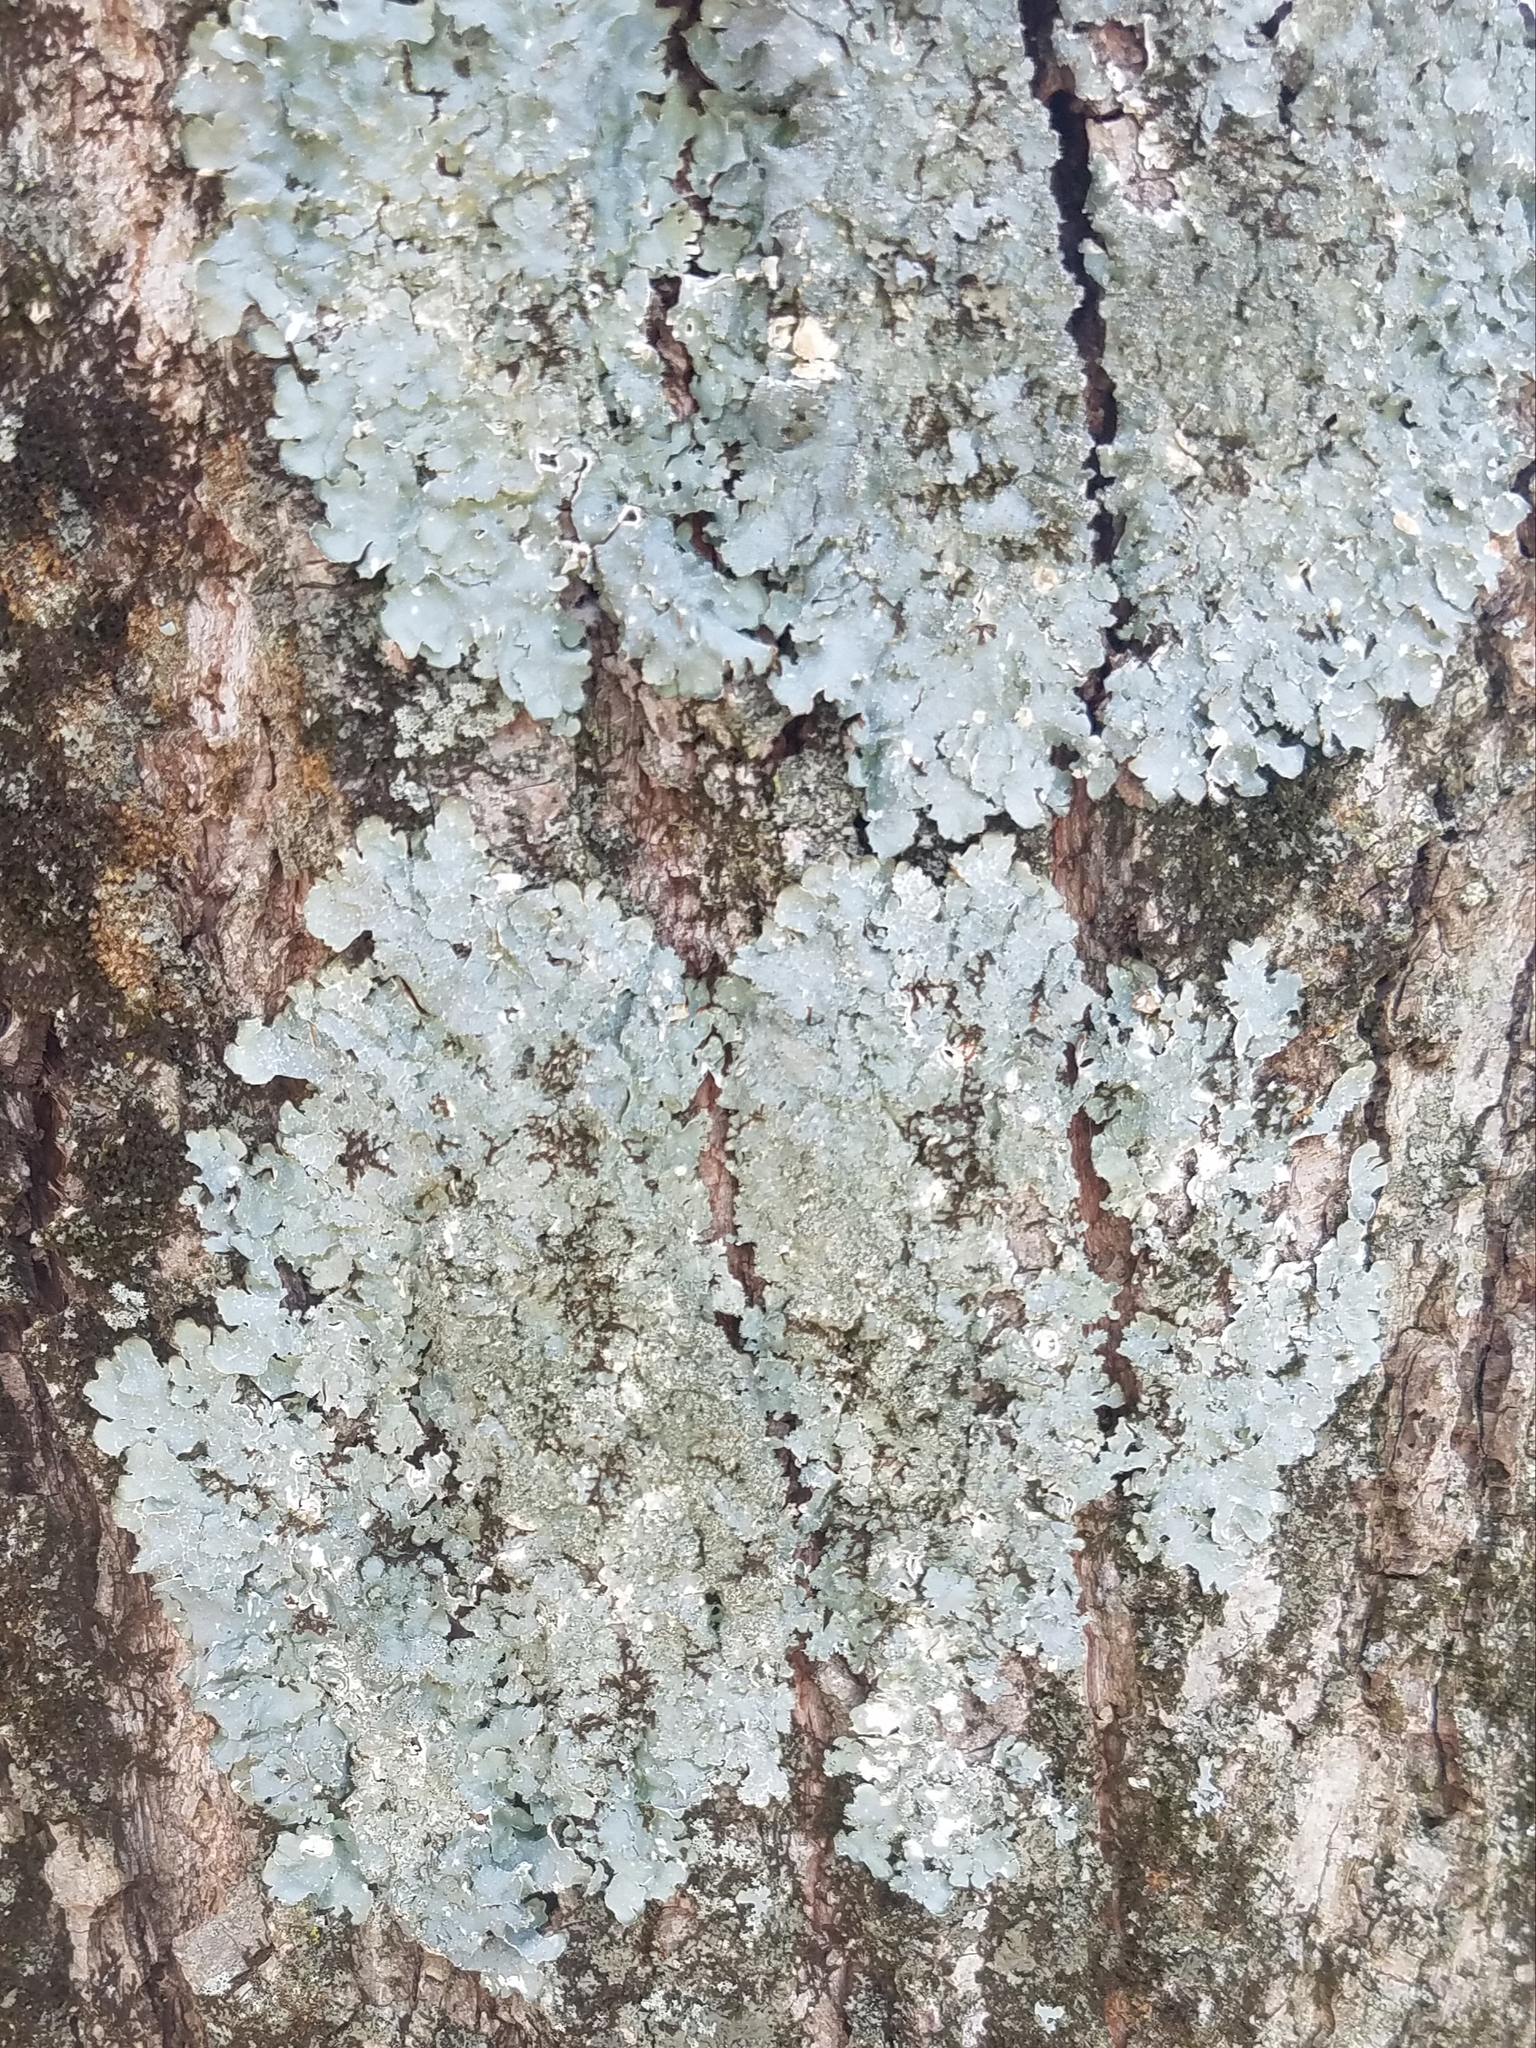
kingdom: Fungi
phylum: Ascomycota
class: Lecanoromycetes
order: Lecanorales
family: Parmeliaceae
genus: Punctelia
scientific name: Punctelia rudecta
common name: Rough speckled shield lichen
